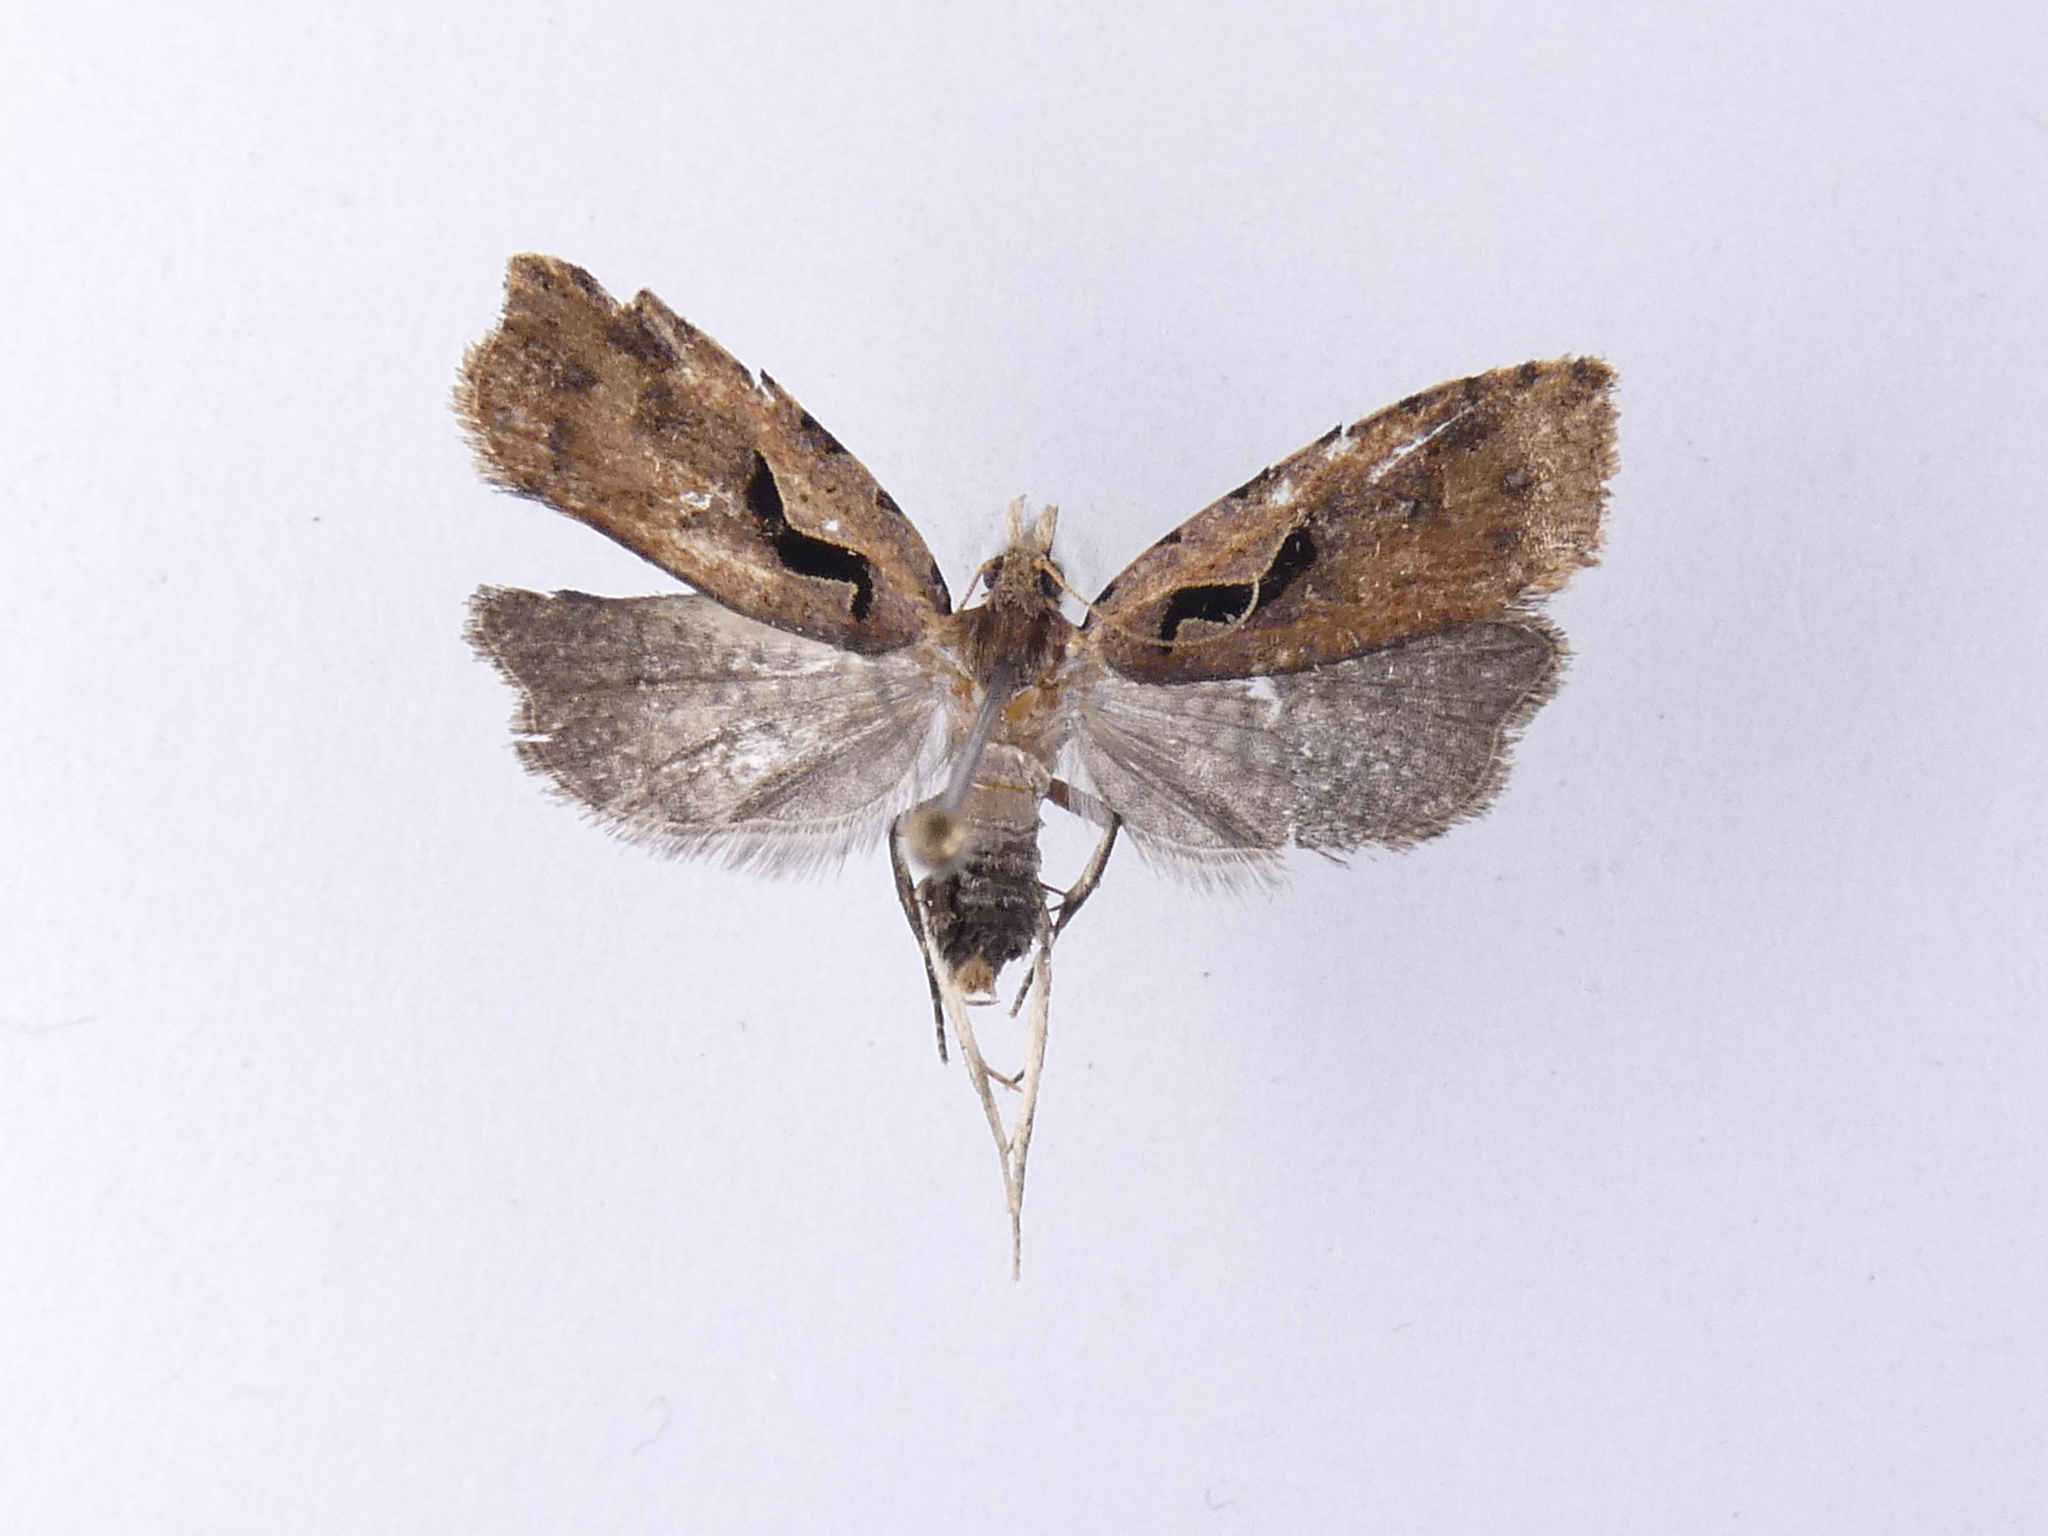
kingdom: Animalia
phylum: Arthropoda
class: Insecta
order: Lepidoptera
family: Tortricidae
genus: Cnephasia
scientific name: Cnephasia jactatana
